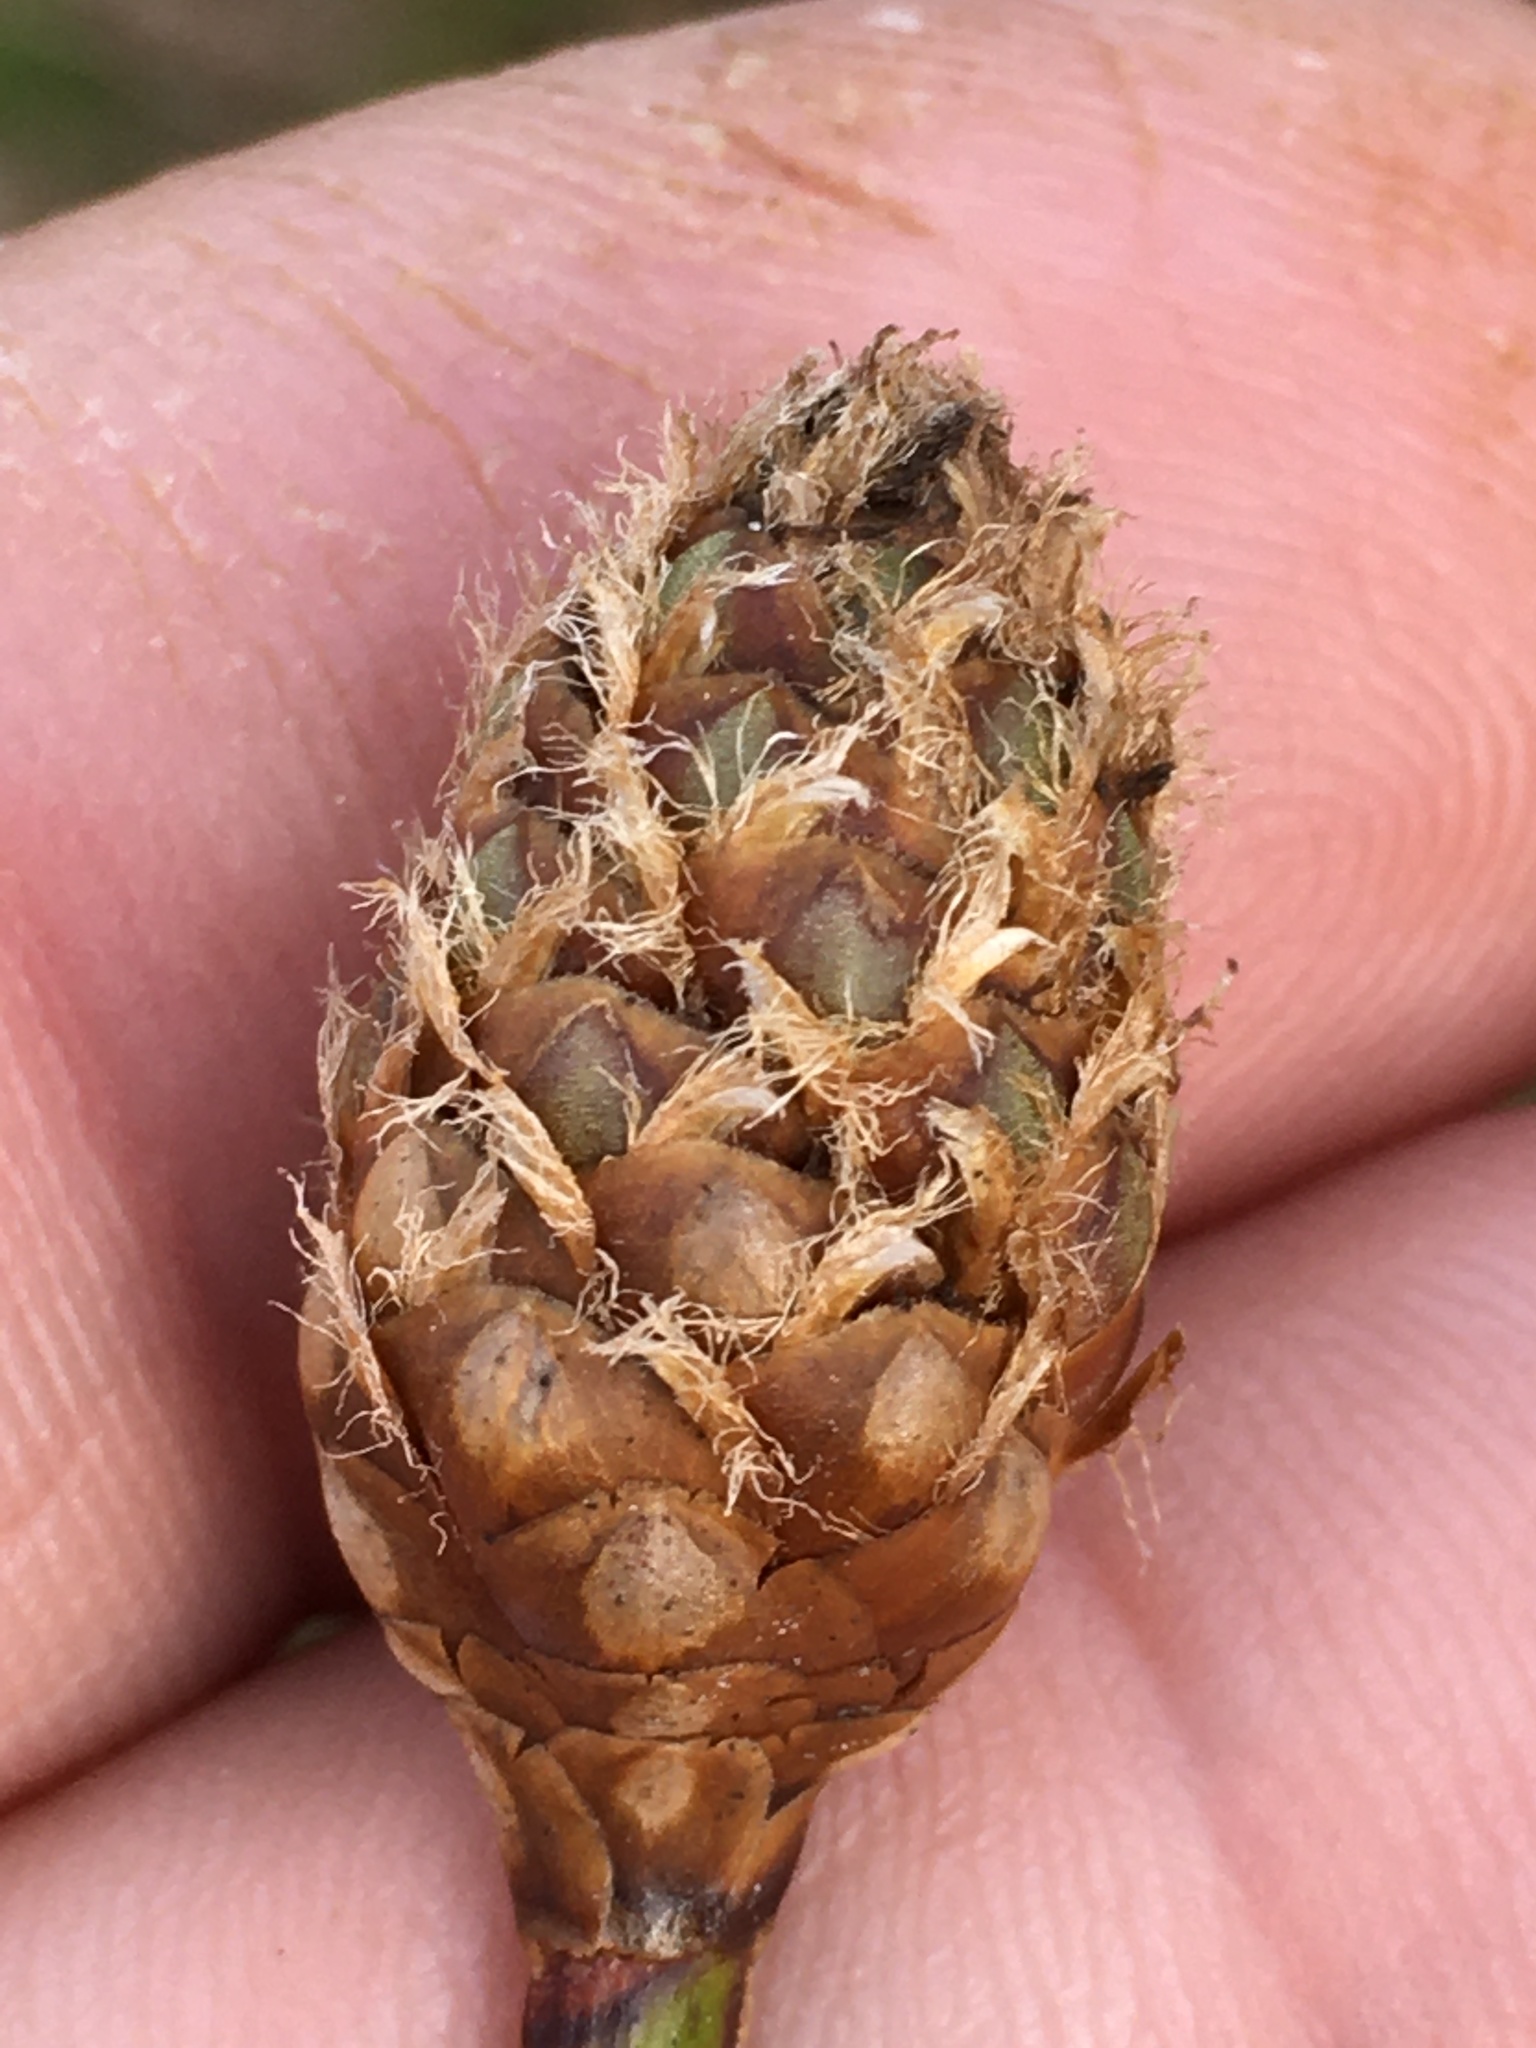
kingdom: Plantae
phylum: Tracheophyta
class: Liliopsida
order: Poales
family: Xyridaceae
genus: Xyris
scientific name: Xyris fimbriata
